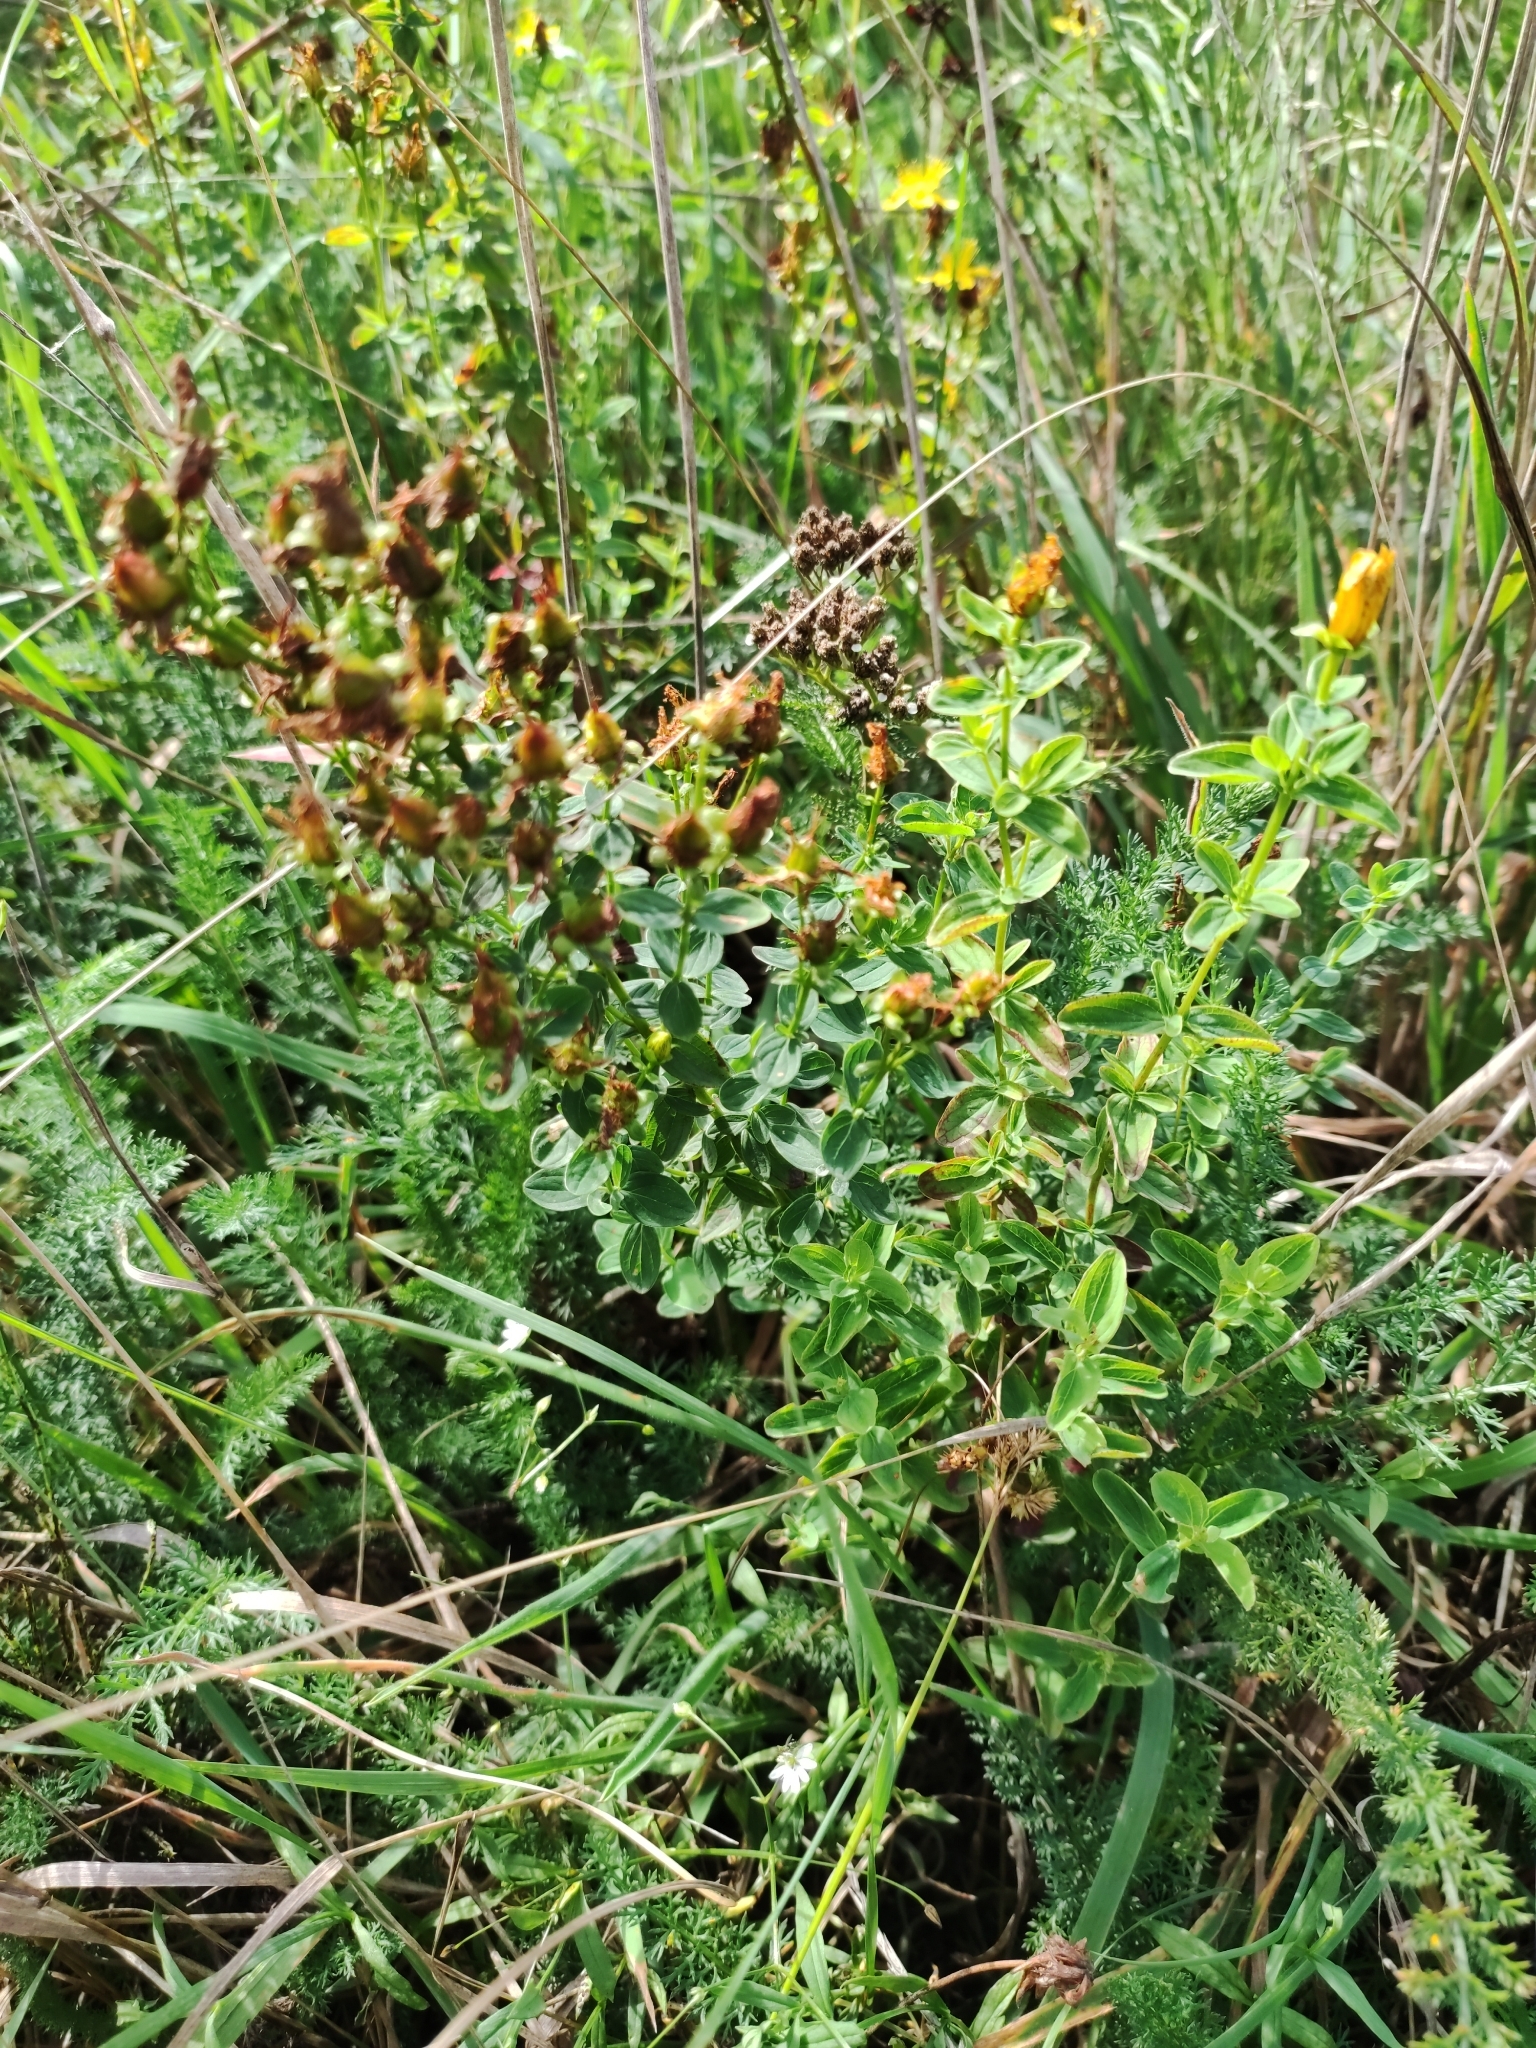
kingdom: Plantae
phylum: Tracheophyta
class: Magnoliopsida
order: Malpighiales
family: Hypericaceae
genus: Hypericum
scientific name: Hypericum maculatum
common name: Imperforate st. john's-wort
